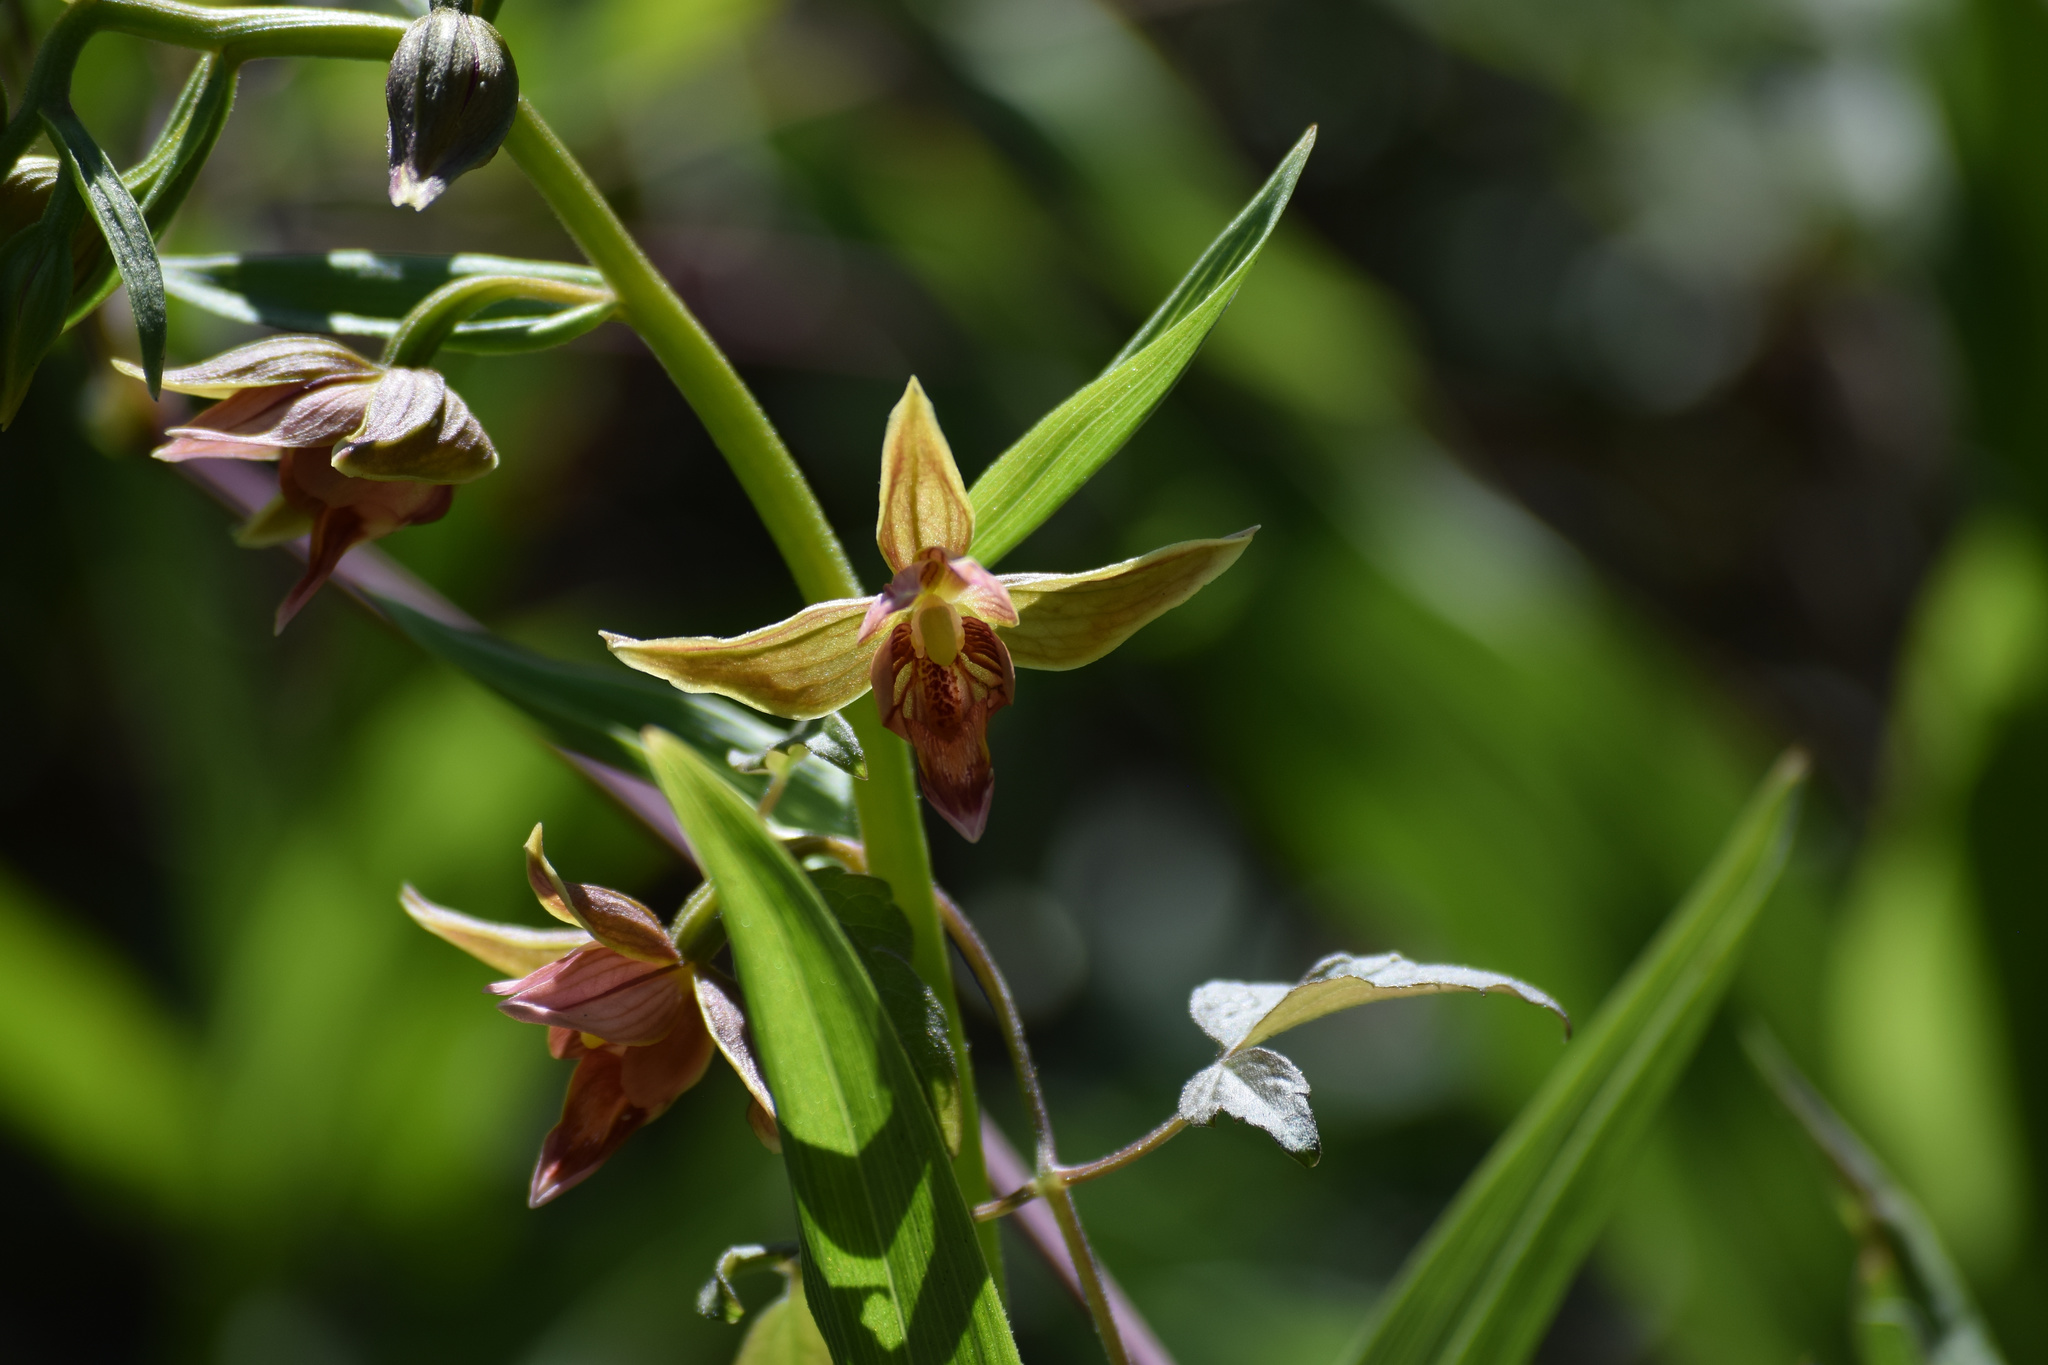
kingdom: Plantae
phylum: Tracheophyta
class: Liliopsida
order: Asparagales
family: Orchidaceae
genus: Epipactis
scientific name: Epipactis gigantea
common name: Chatterbox
